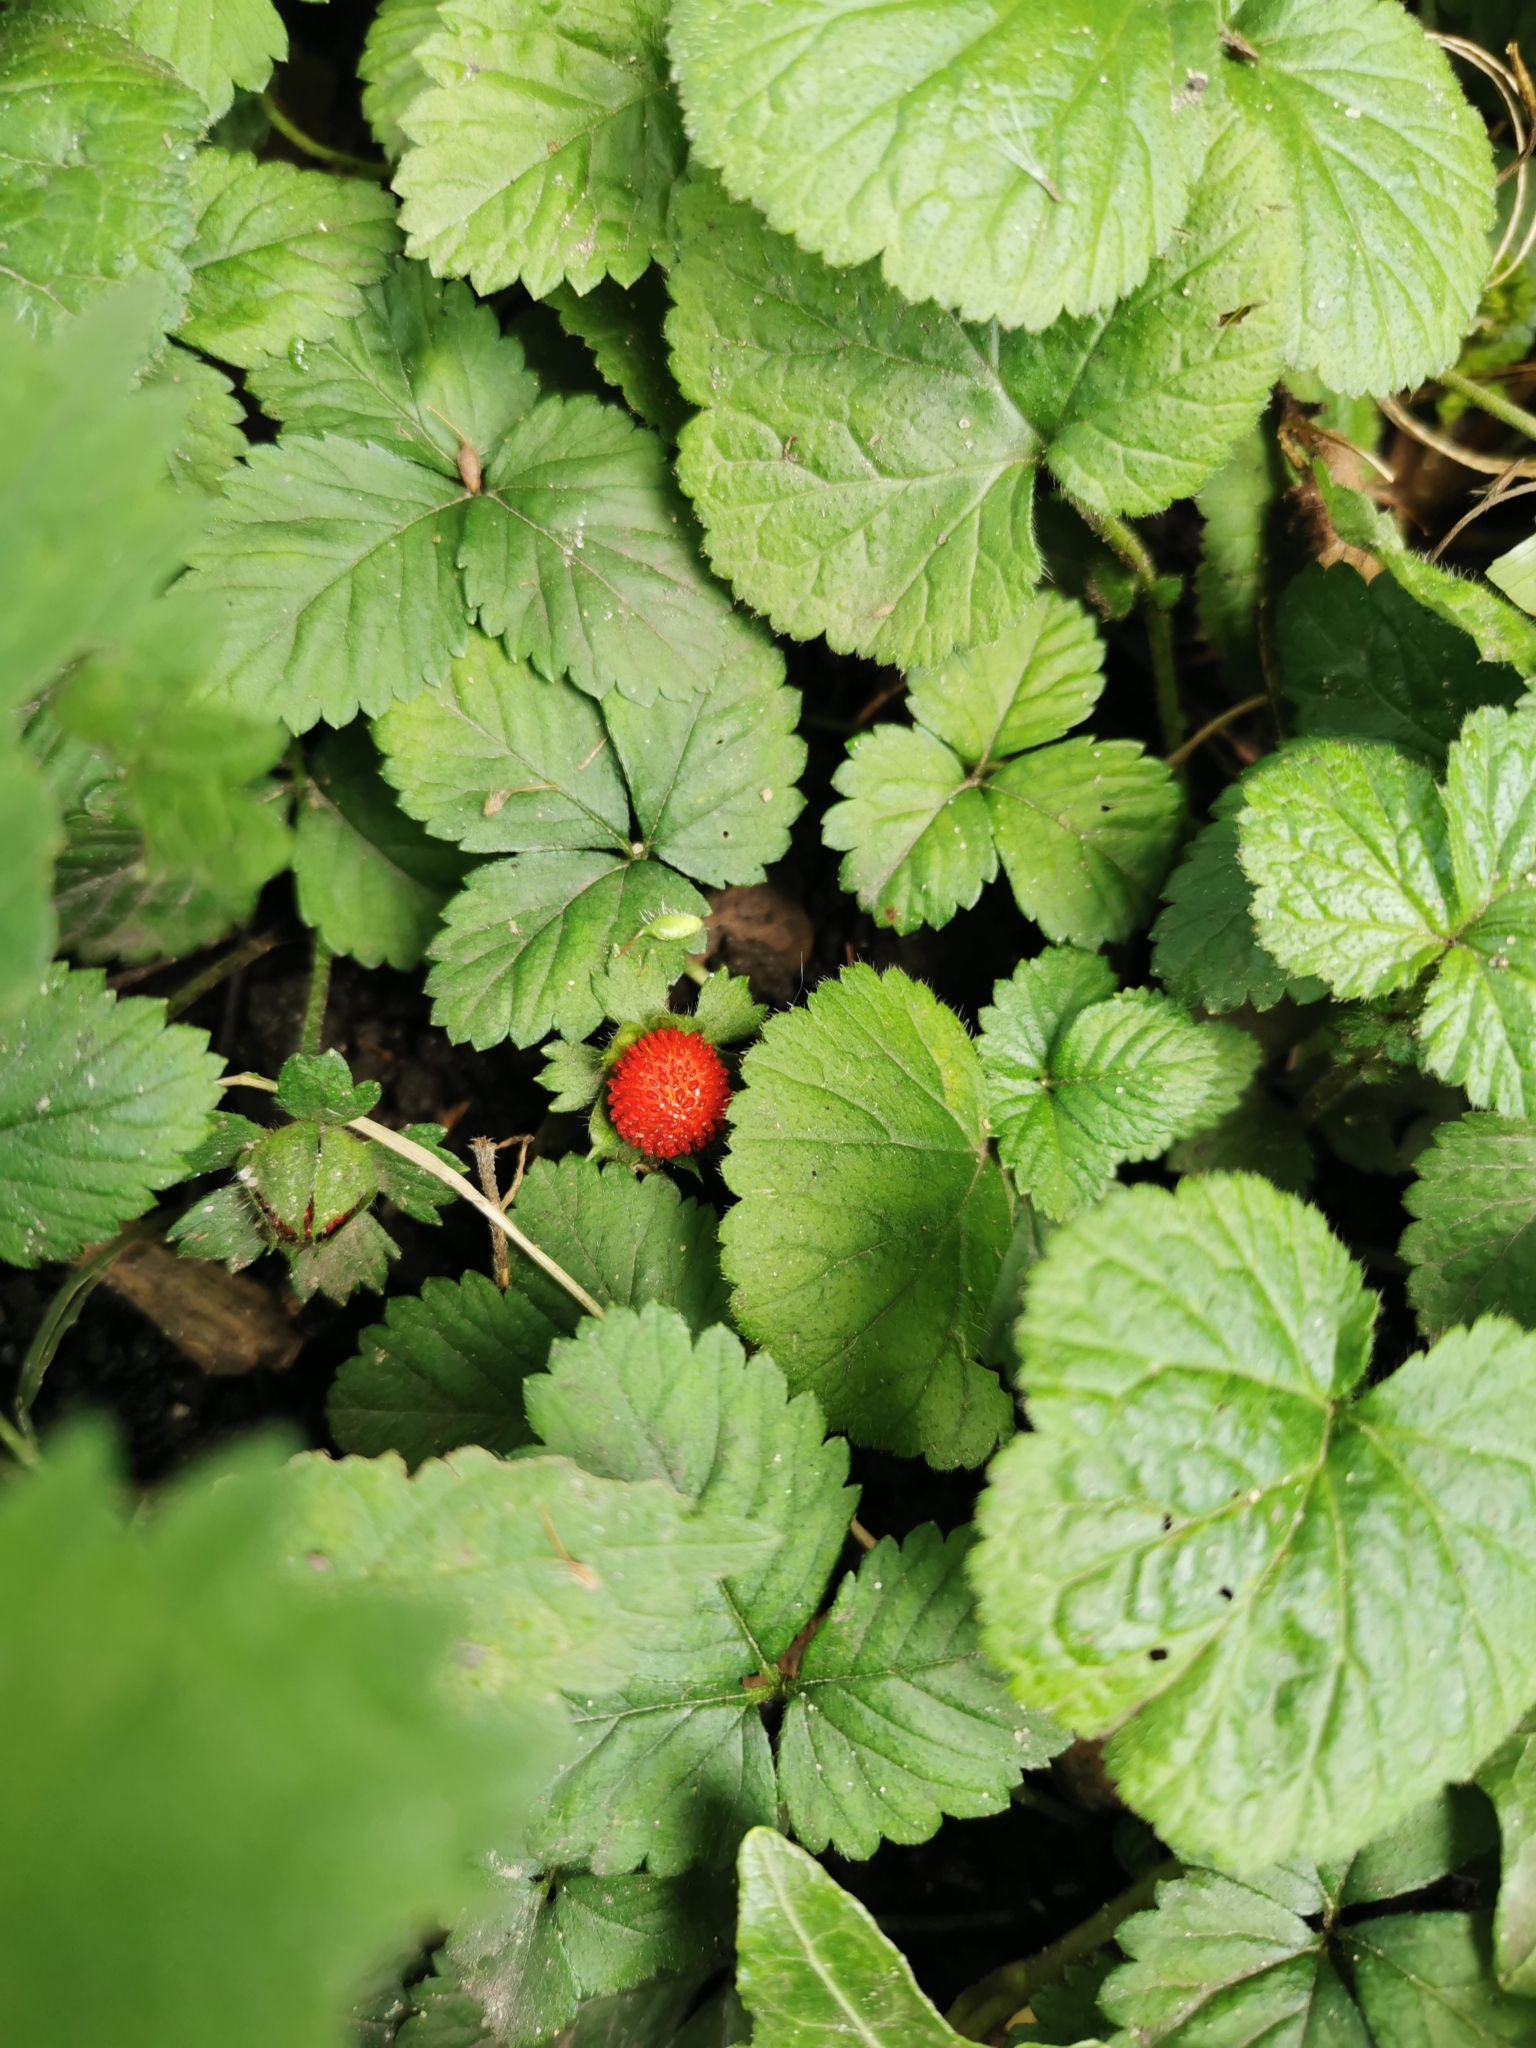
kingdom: Plantae
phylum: Tracheophyta
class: Magnoliopsida
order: Rosales
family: Rosaceae
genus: Potentilla
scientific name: Potentilla indica
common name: Yellow-flowered strawberry
